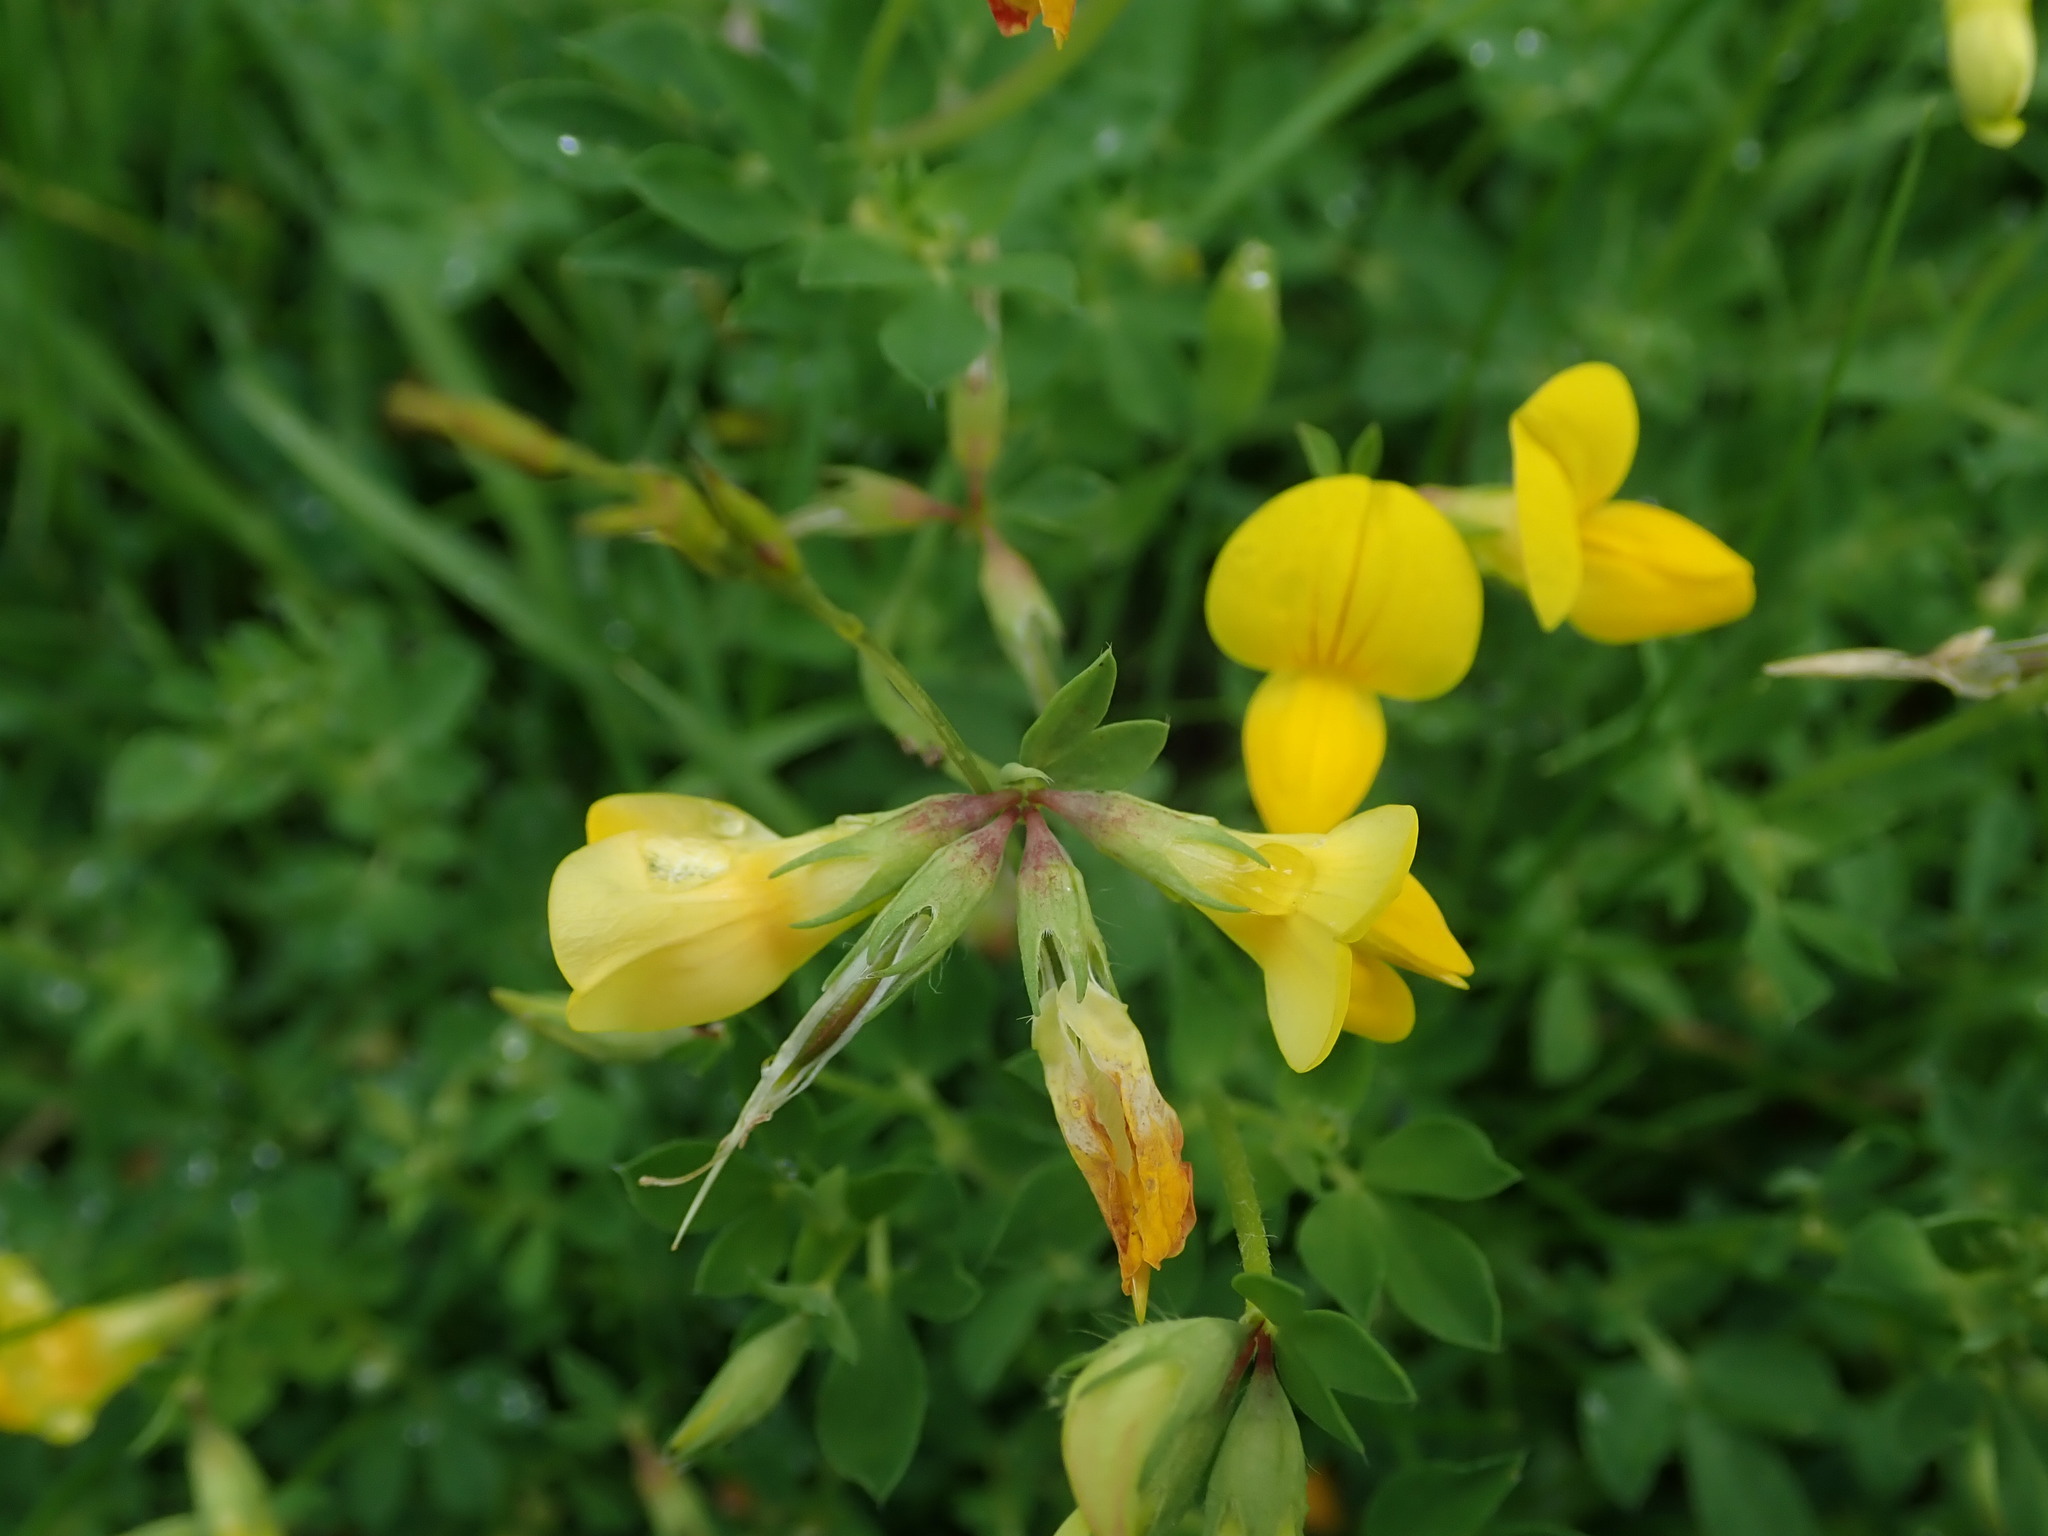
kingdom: Plantae
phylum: Tracheophyta
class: Magnoliopsida
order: Fabales
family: Fabaceae
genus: Lotus
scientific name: Lotus corniculatus
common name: Common bird's-foot-trefoil
